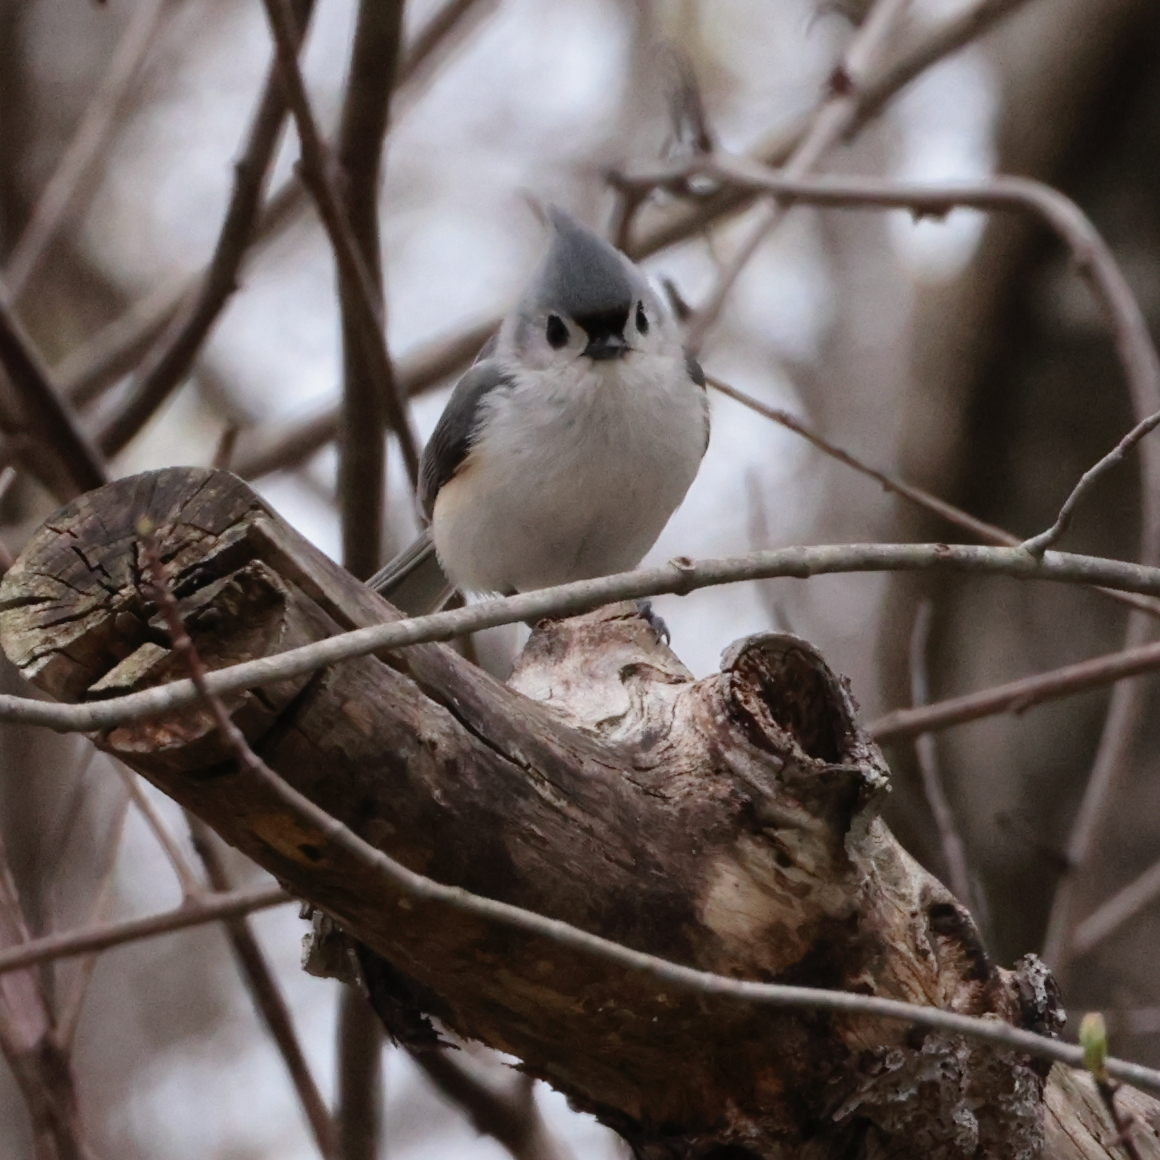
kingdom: Animalia
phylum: Chordata
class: Aves
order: Passeriformes
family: Paridae
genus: Baeolophus
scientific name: Baeolophus bicolor
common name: Tufted titmouse
